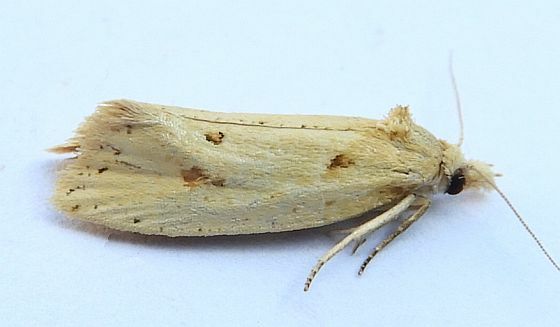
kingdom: Animalia
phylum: Arthropoda
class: Insecta
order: Lepidoptera
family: Tortricidae
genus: Aethes
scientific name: Aethes atomosana
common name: Two-spotted aethes
